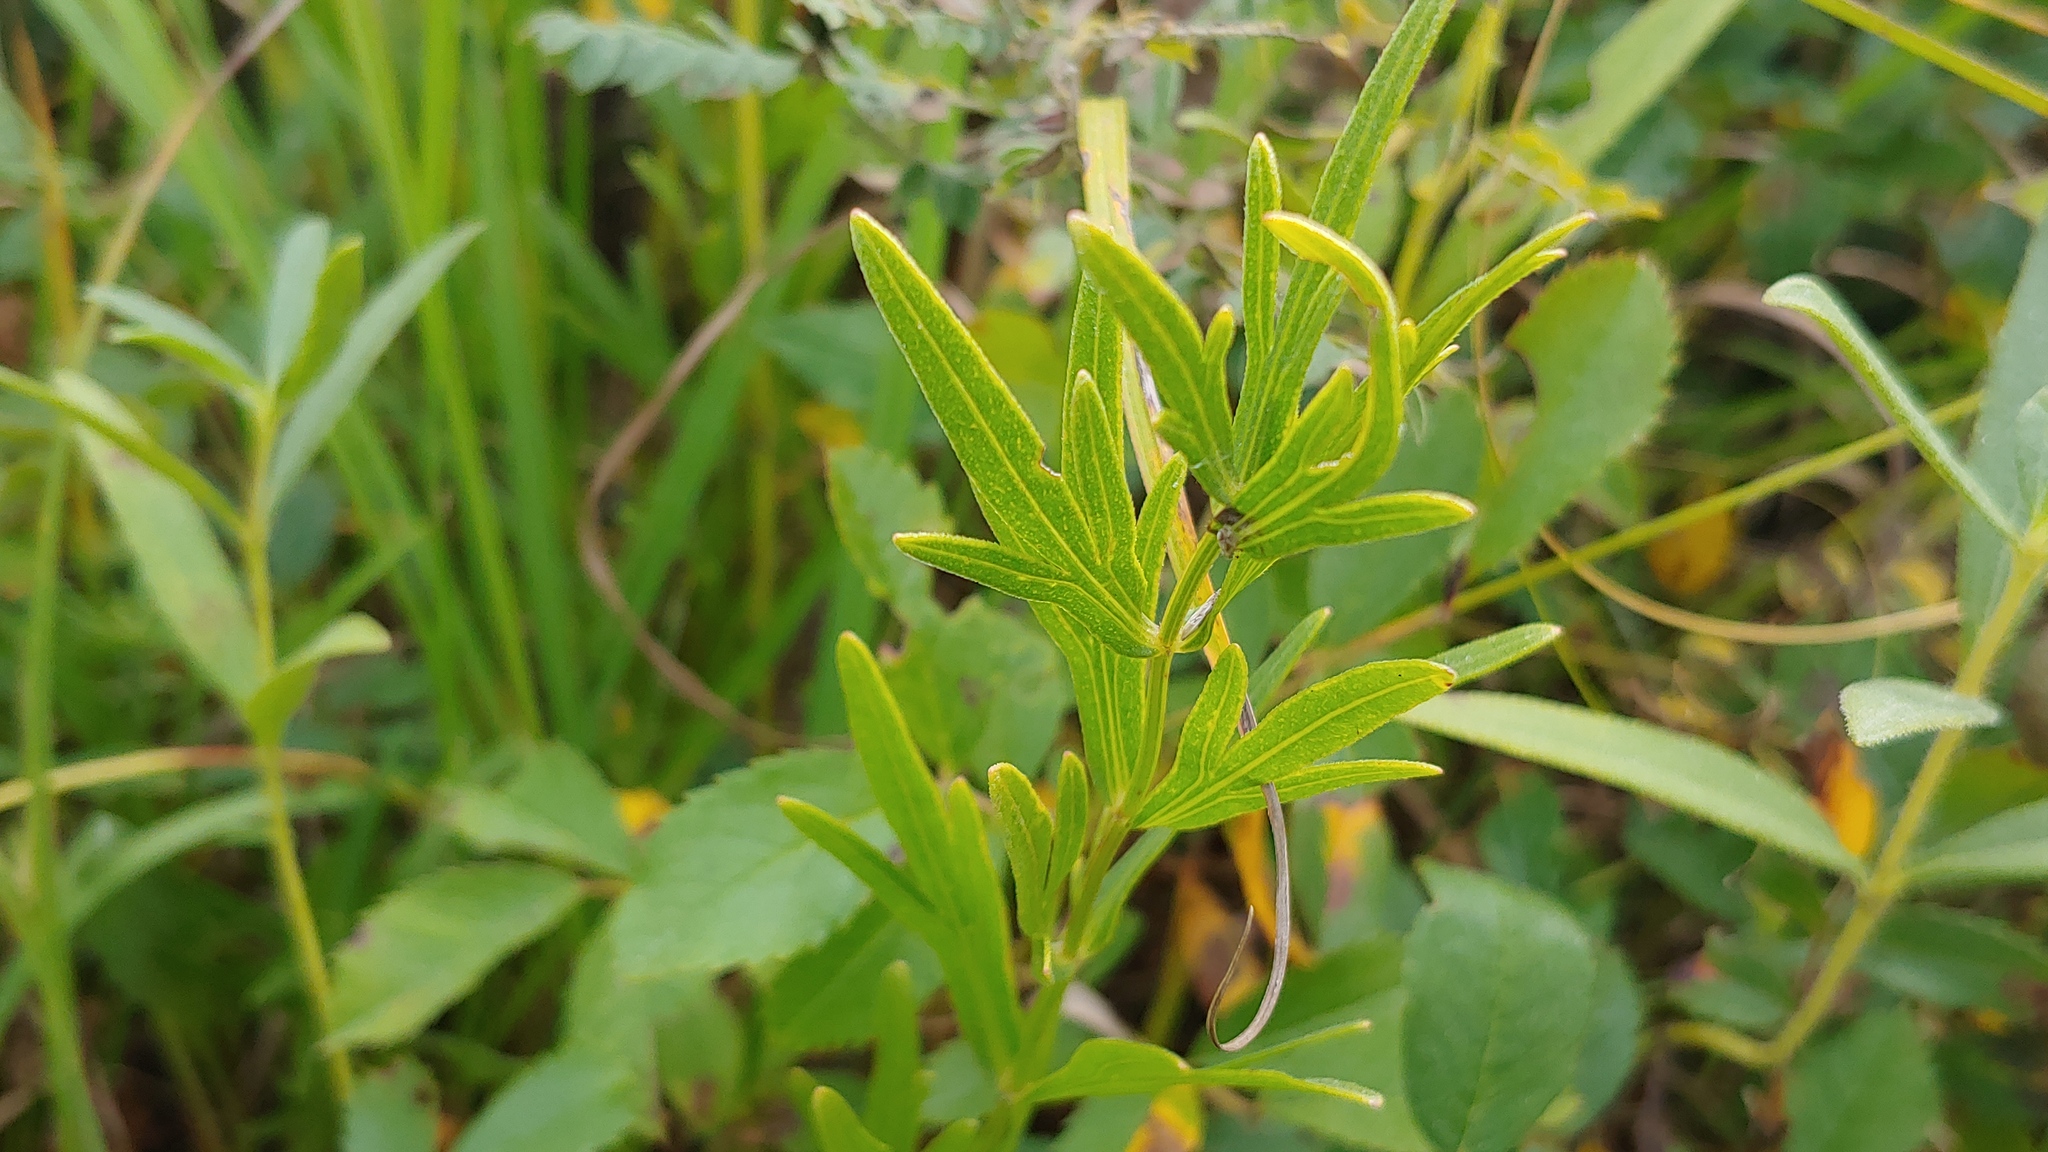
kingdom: Plantae
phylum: Tracheophyta
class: Magnoliopsida
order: Asterales
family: Asteraceae
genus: Coreopsis
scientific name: Coreopsis palmata
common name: Prairie coreopsis
